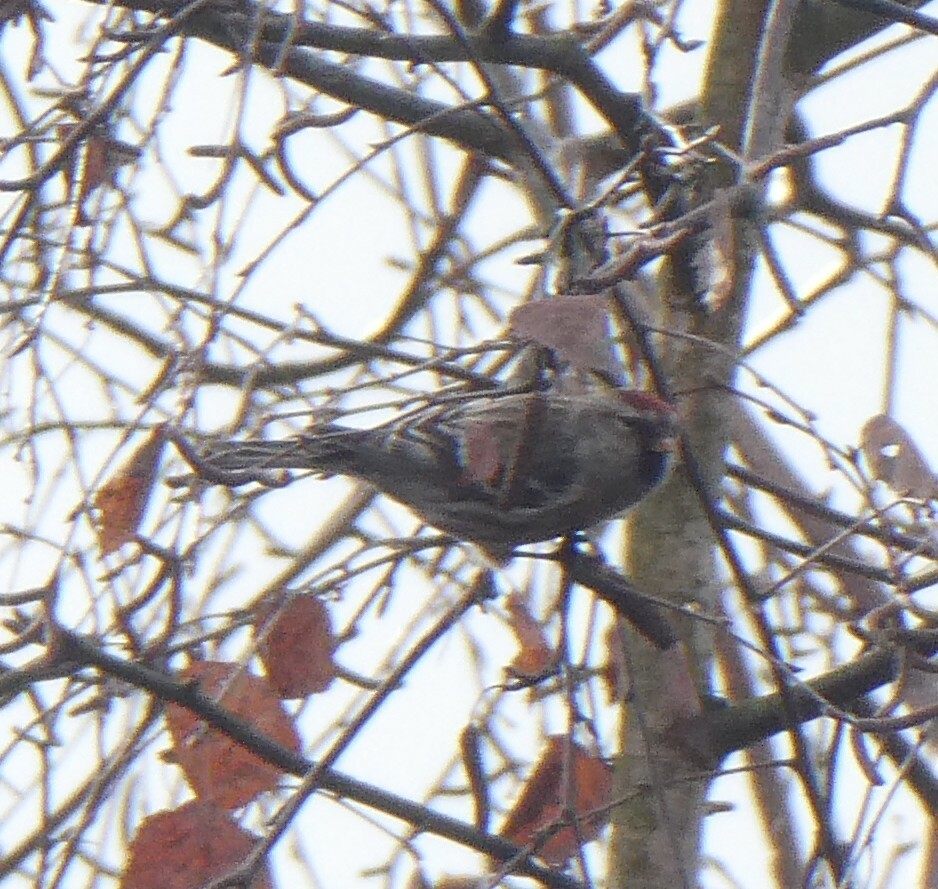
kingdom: Animalia
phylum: Chordata
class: Aves
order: Passeriformes
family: Fringillidae
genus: Acanthis
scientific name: Acanthis flammea
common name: Common redpoll
